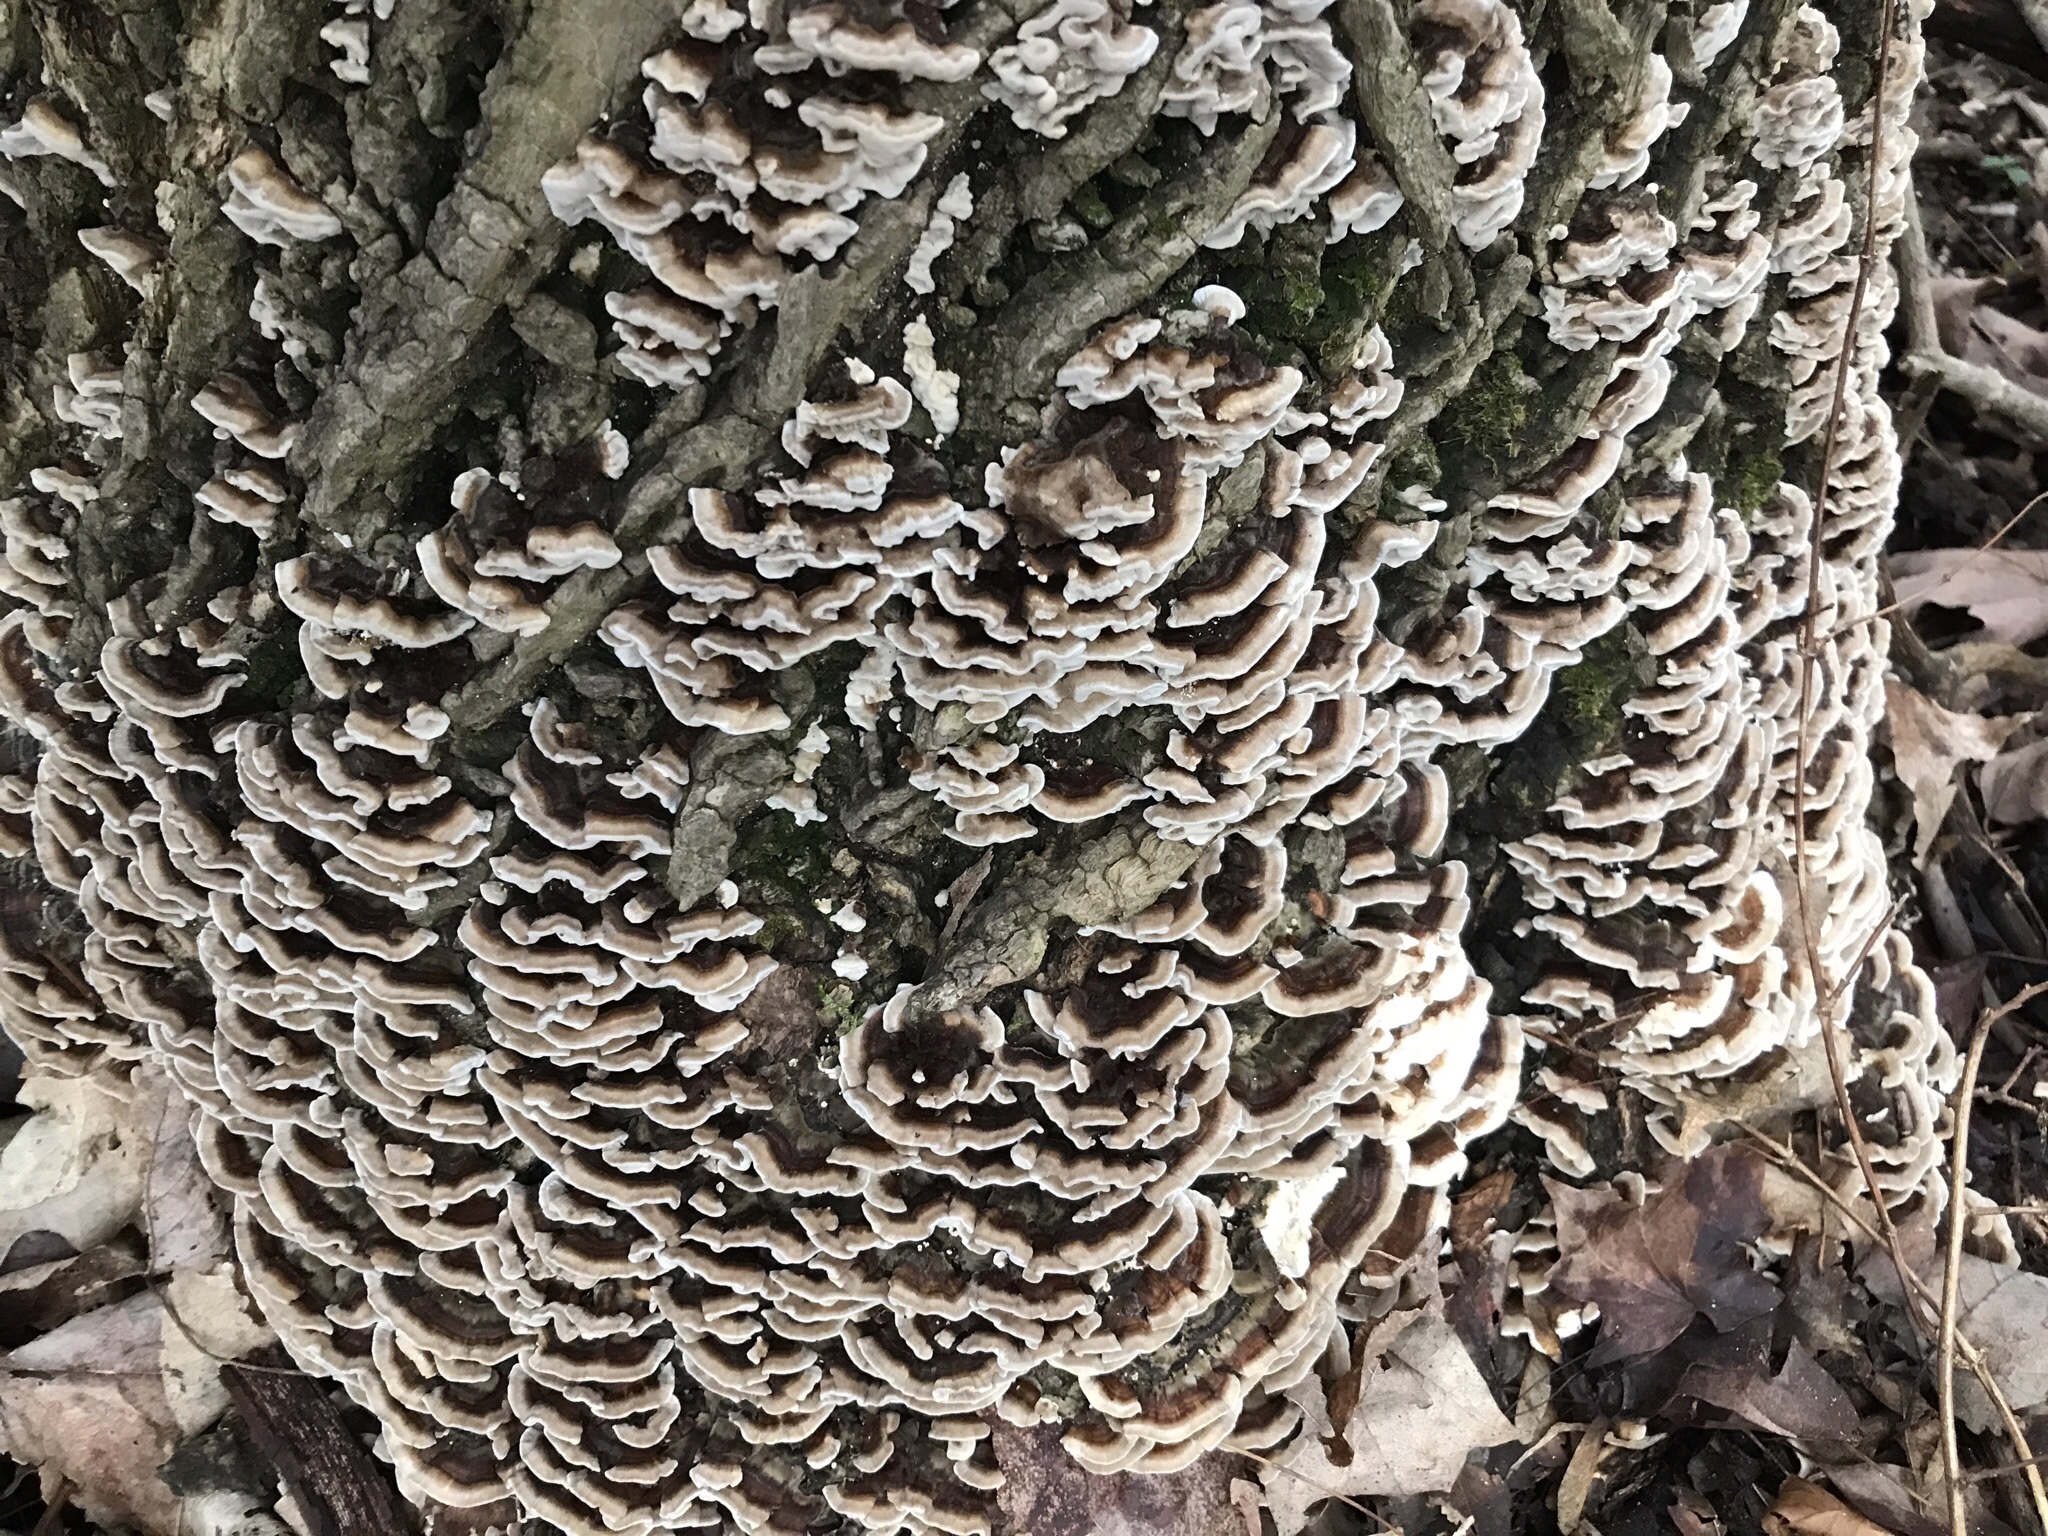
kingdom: Fungi
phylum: Basidiomycota
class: Agaricomycetes
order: Polyporales
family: Polyporaceae
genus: Trametes
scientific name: Trametes versicolor
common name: Turkeytail
